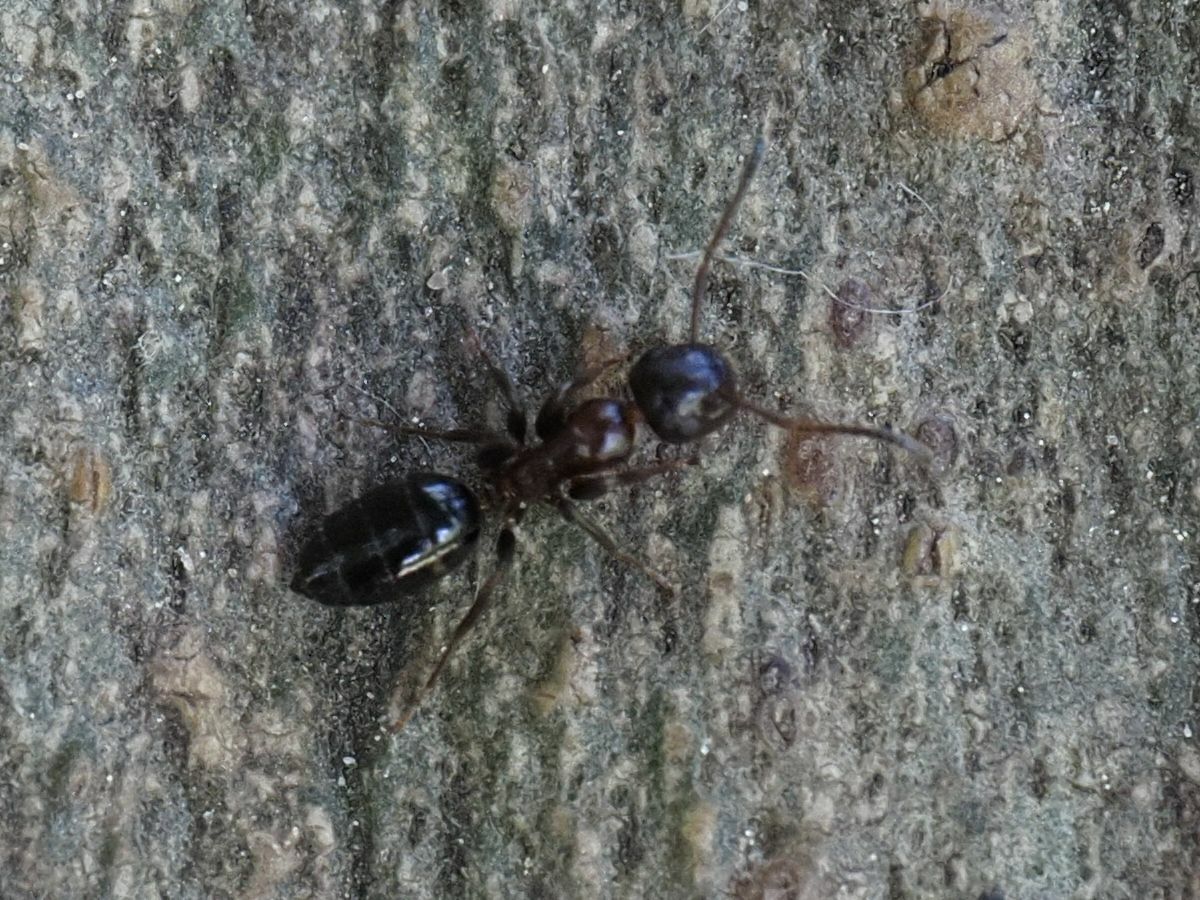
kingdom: Animalia
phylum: Arthropoda
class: Insecta
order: Hymenoptera
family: Formicidae
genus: Camponotus
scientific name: Camponotus truncatus
